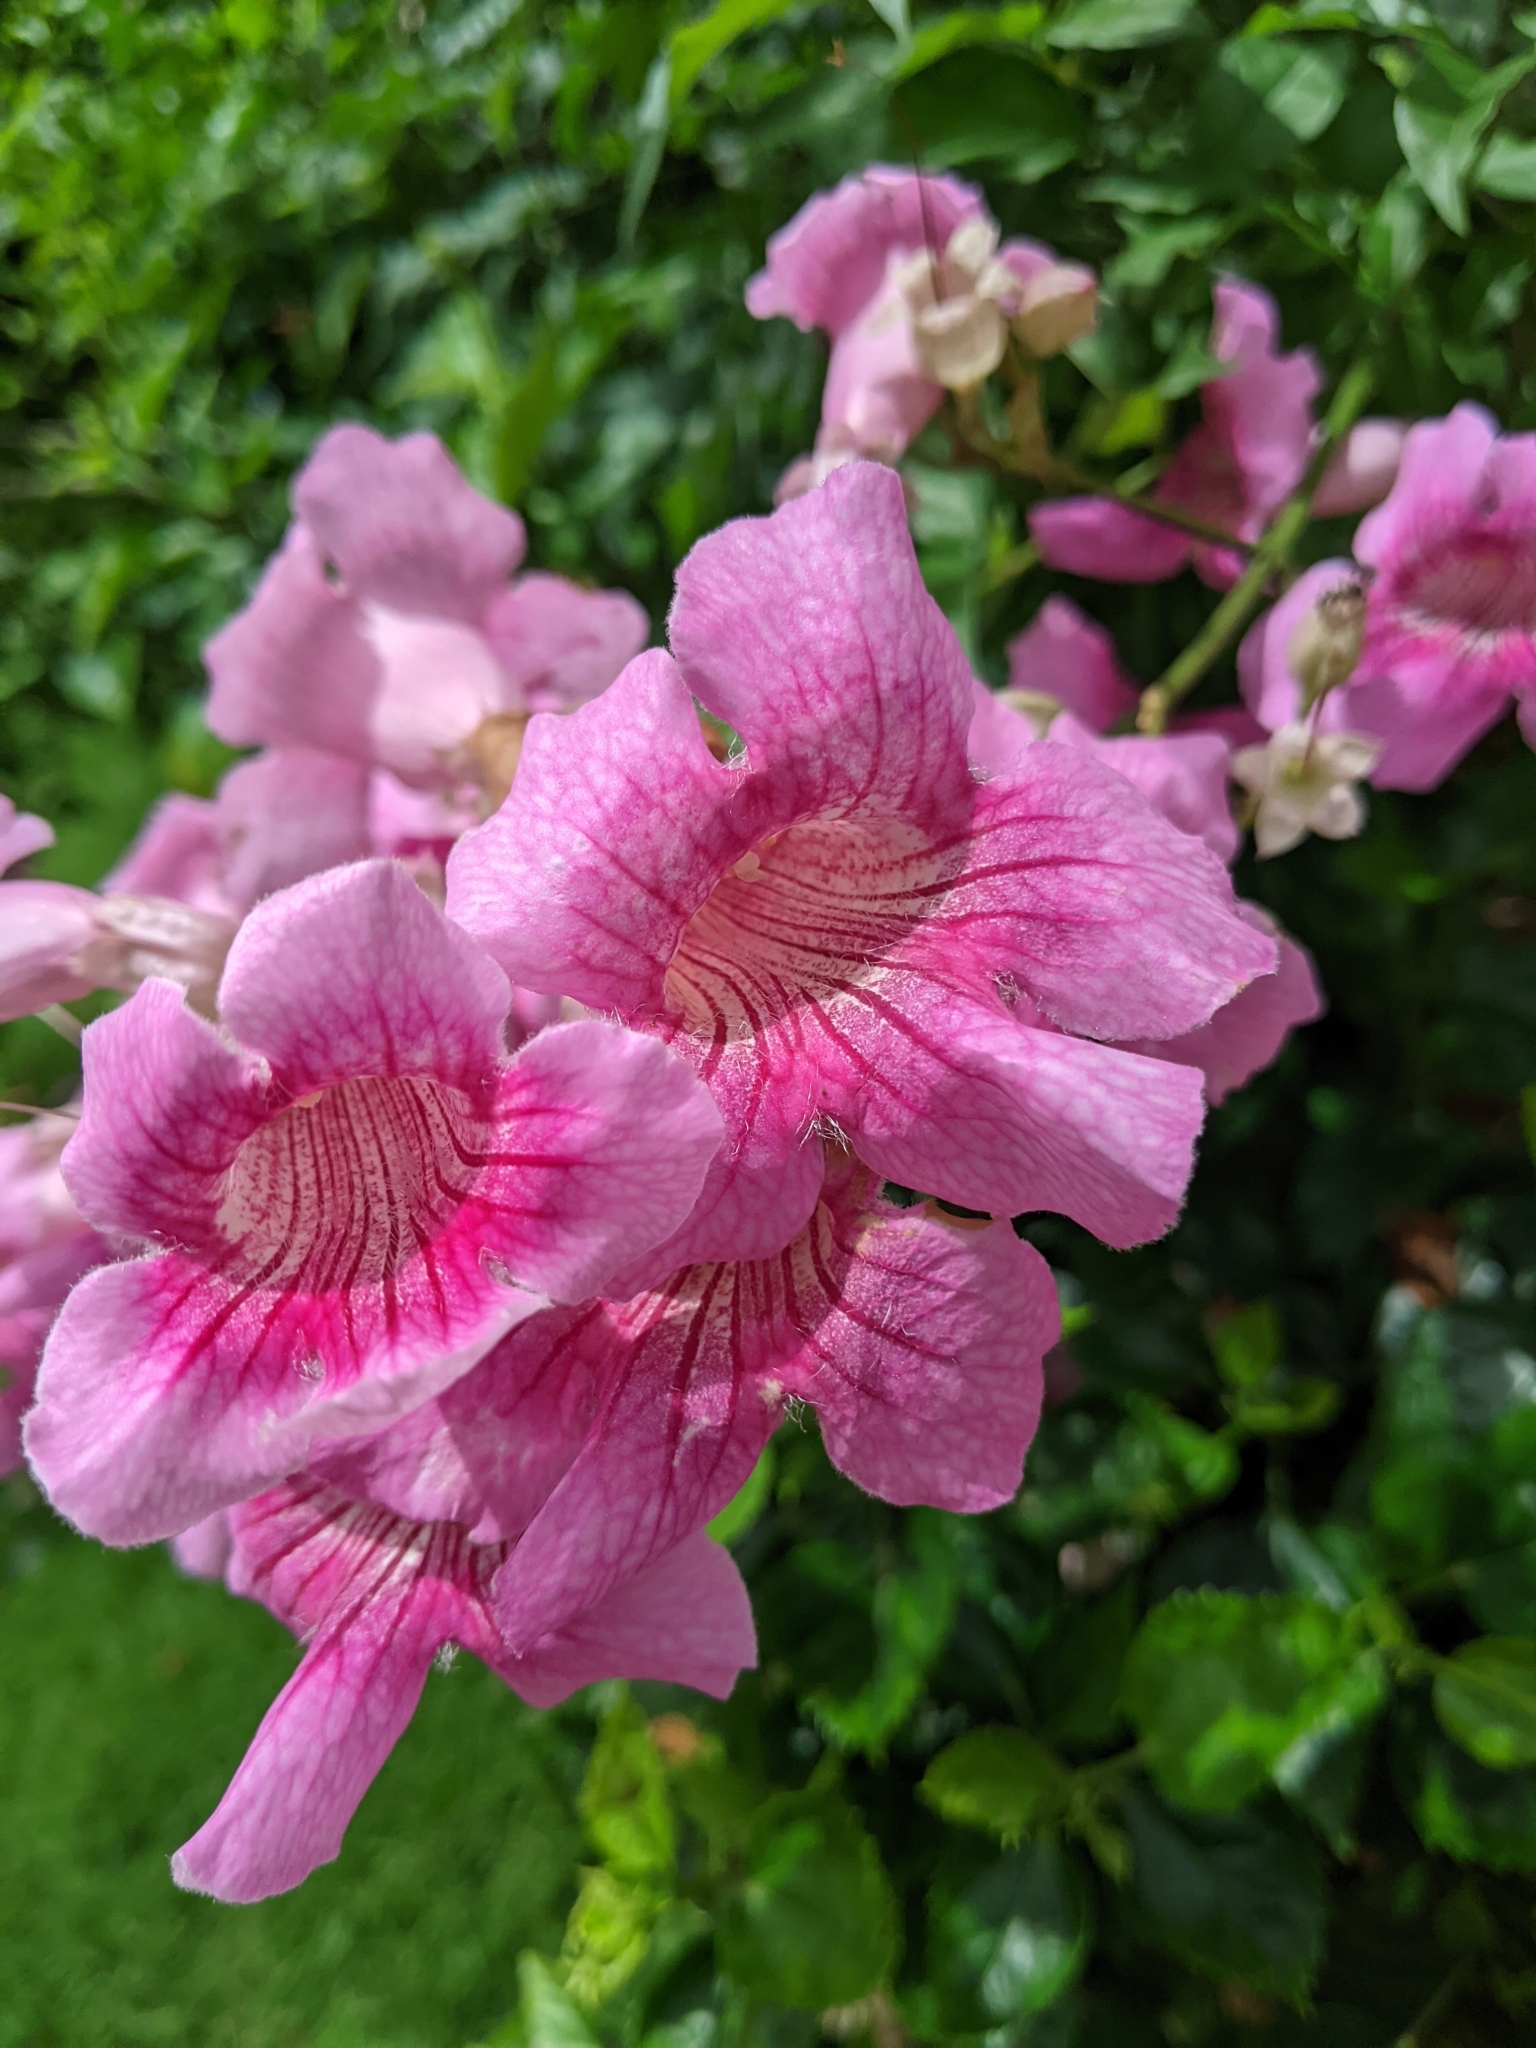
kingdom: Plantae
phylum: Tracheophyta
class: Magnoliopsida
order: Lamiales
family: Bignoniaceae
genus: Podranea
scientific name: Podranea ricasoliana
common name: Zimbabwe creeper
